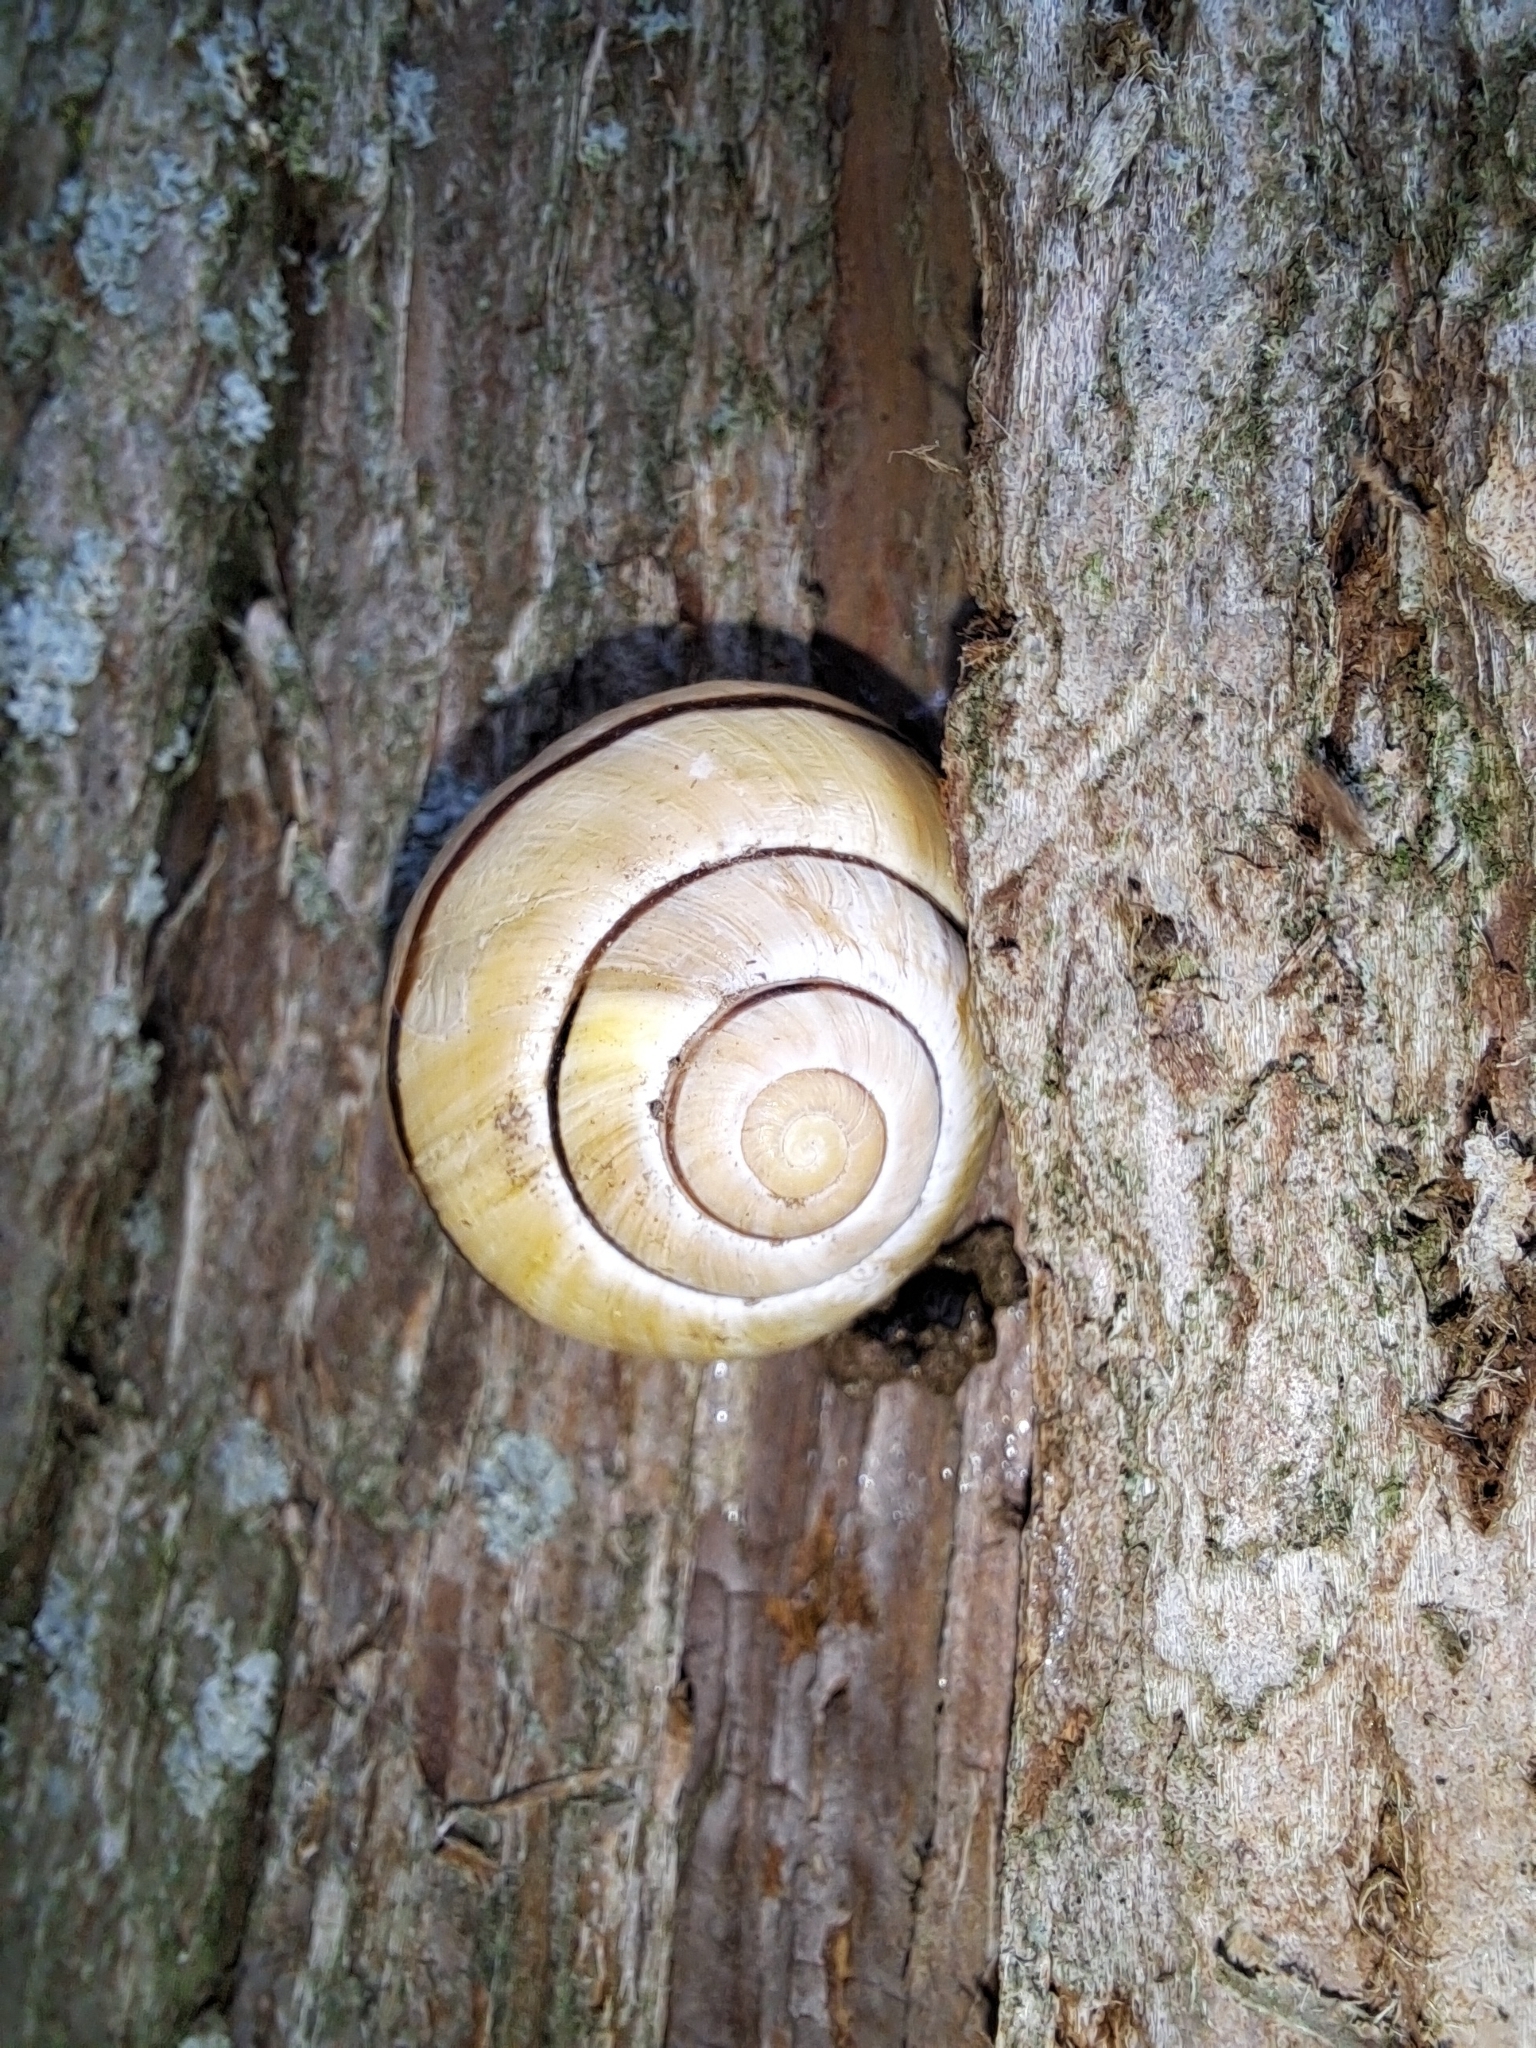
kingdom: Animalia
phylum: Mollusca
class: Gastropoda
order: Stylommatophora
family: Helicidae
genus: Cepaea
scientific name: Cepaea nemoralis
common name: Grovesnail
